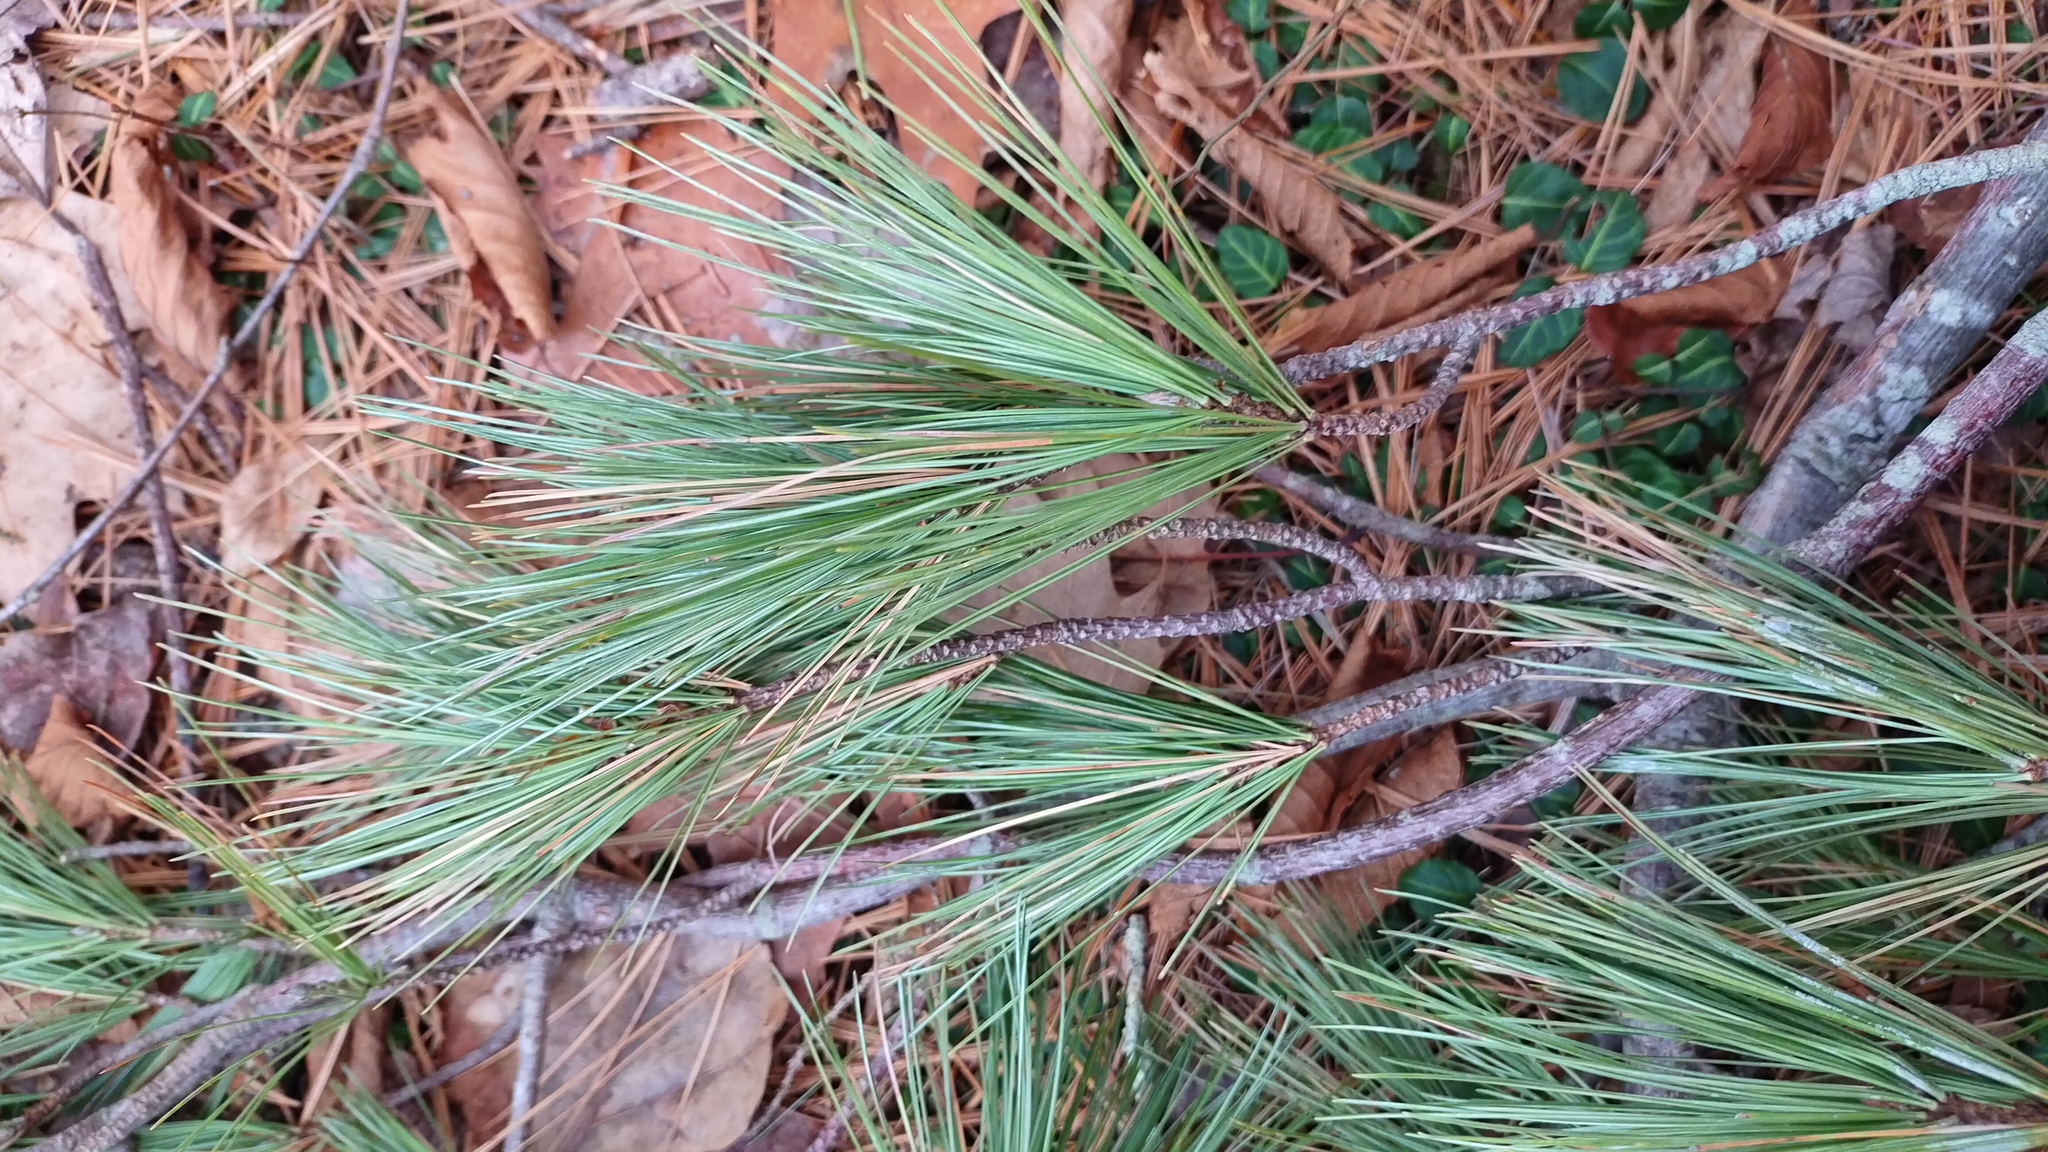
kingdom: Plantae
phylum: Tracheophyta
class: Pinopsida
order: Pinales
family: Pinaceae
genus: Pinus
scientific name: Pinus strobus
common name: Weymouth pine
